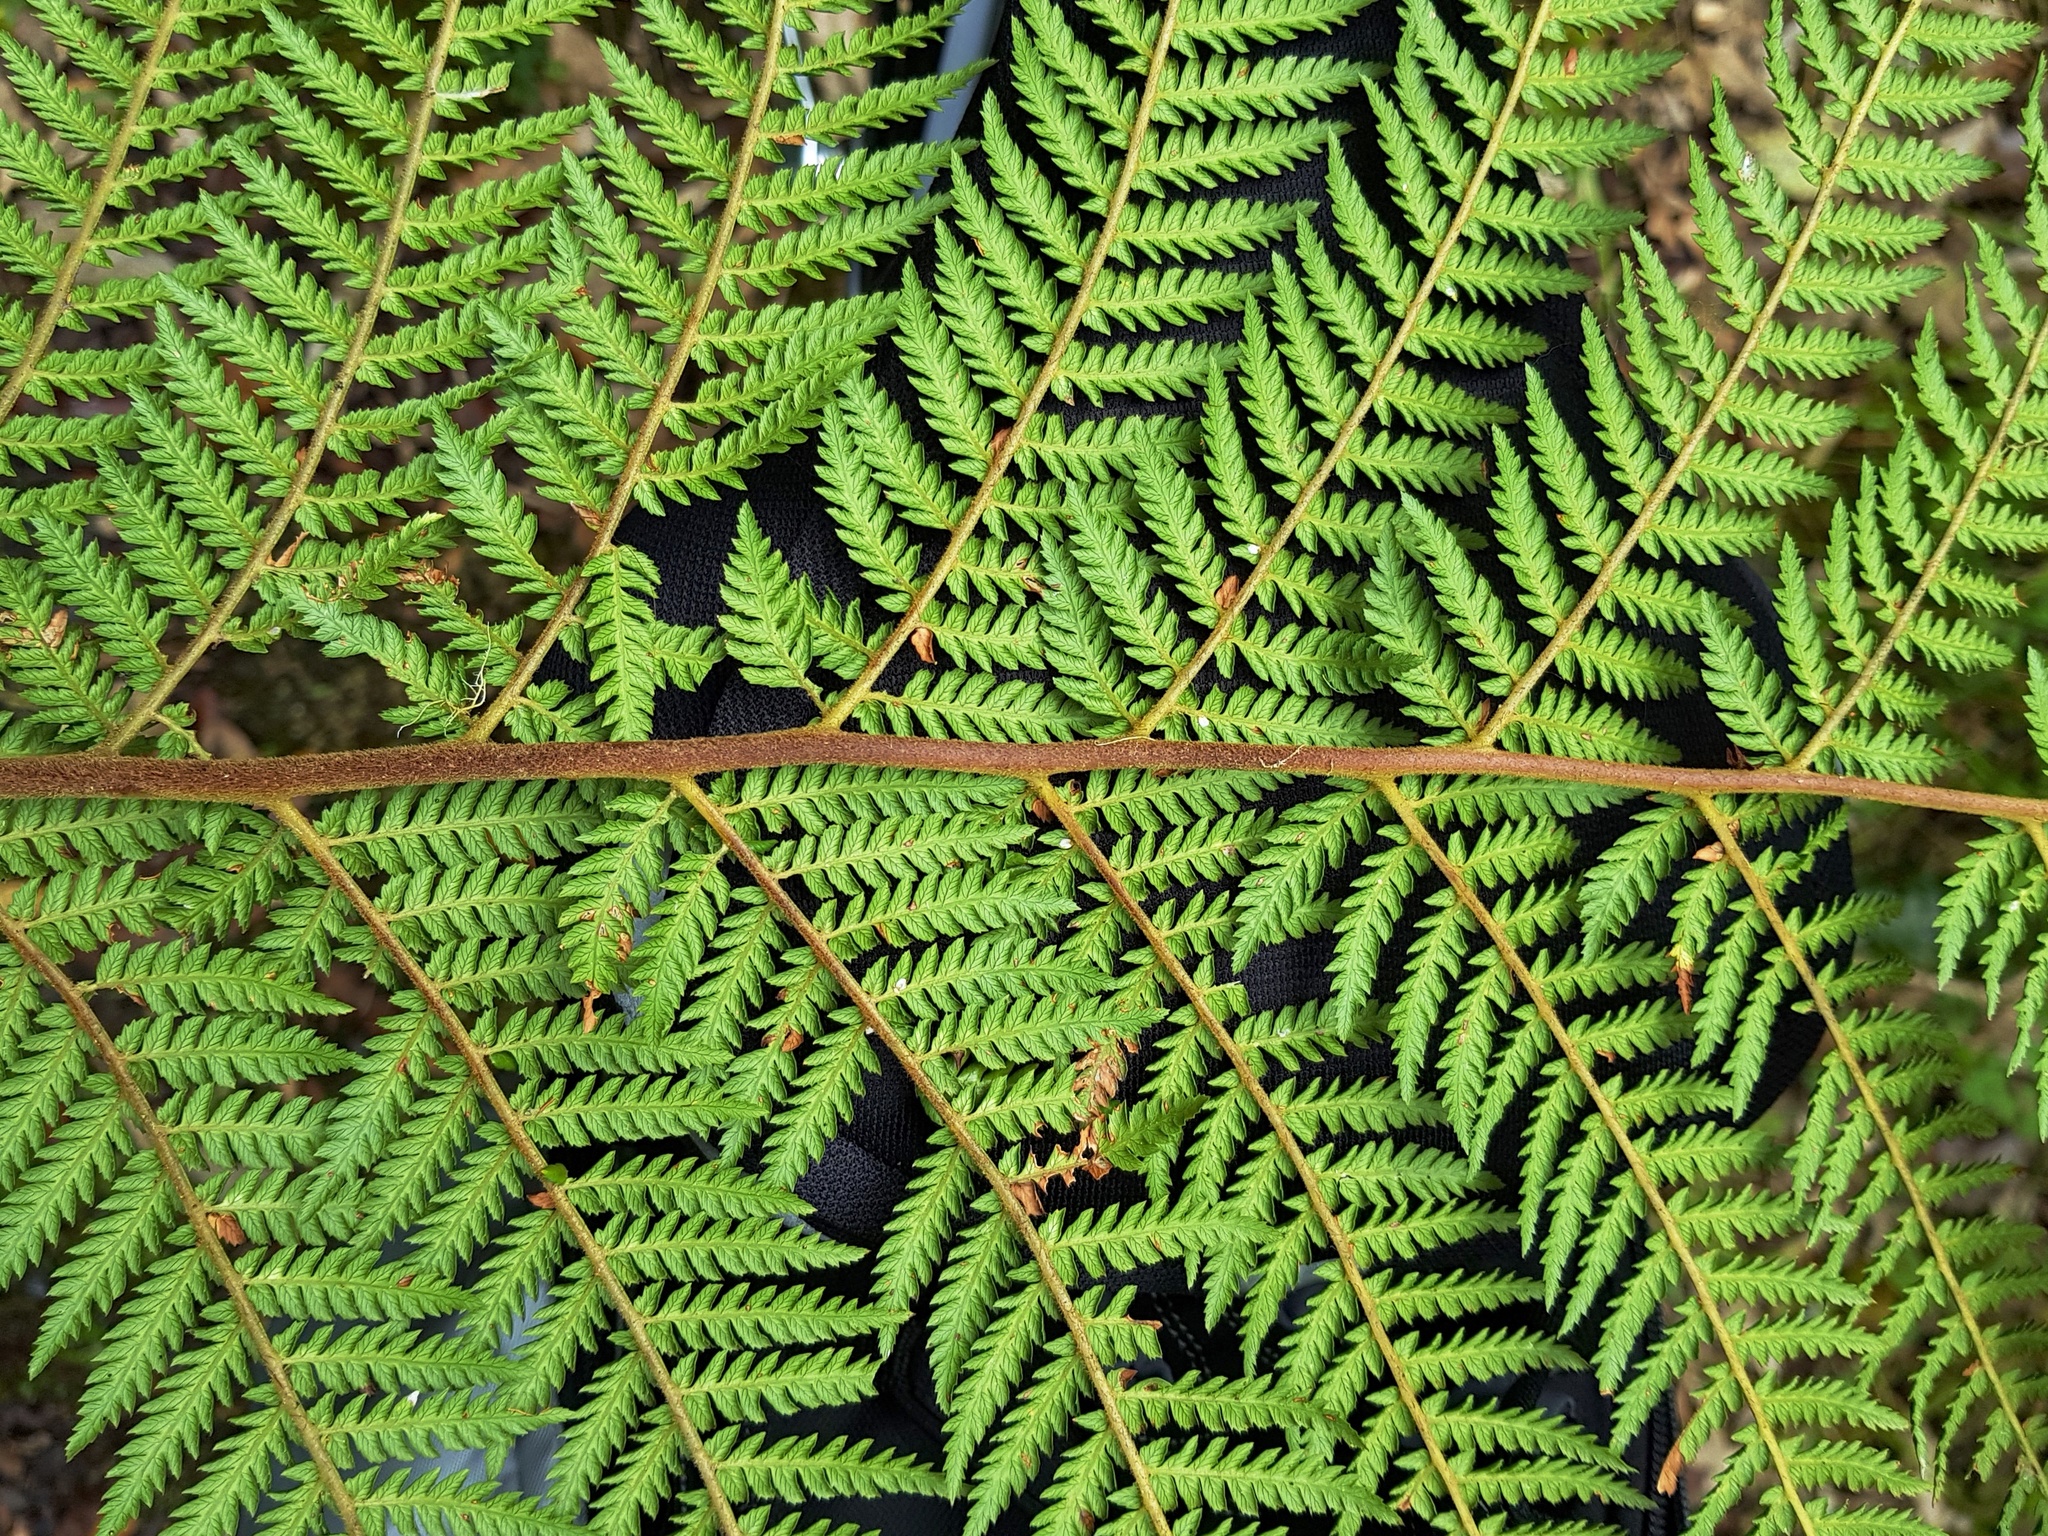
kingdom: Plantae
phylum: Tracheophyta
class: Polypodiopsida
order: Cyatheales
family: Dicksoniaceae
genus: Dicksonia
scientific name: Dicksonia fibrosa
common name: Golden tree fern
